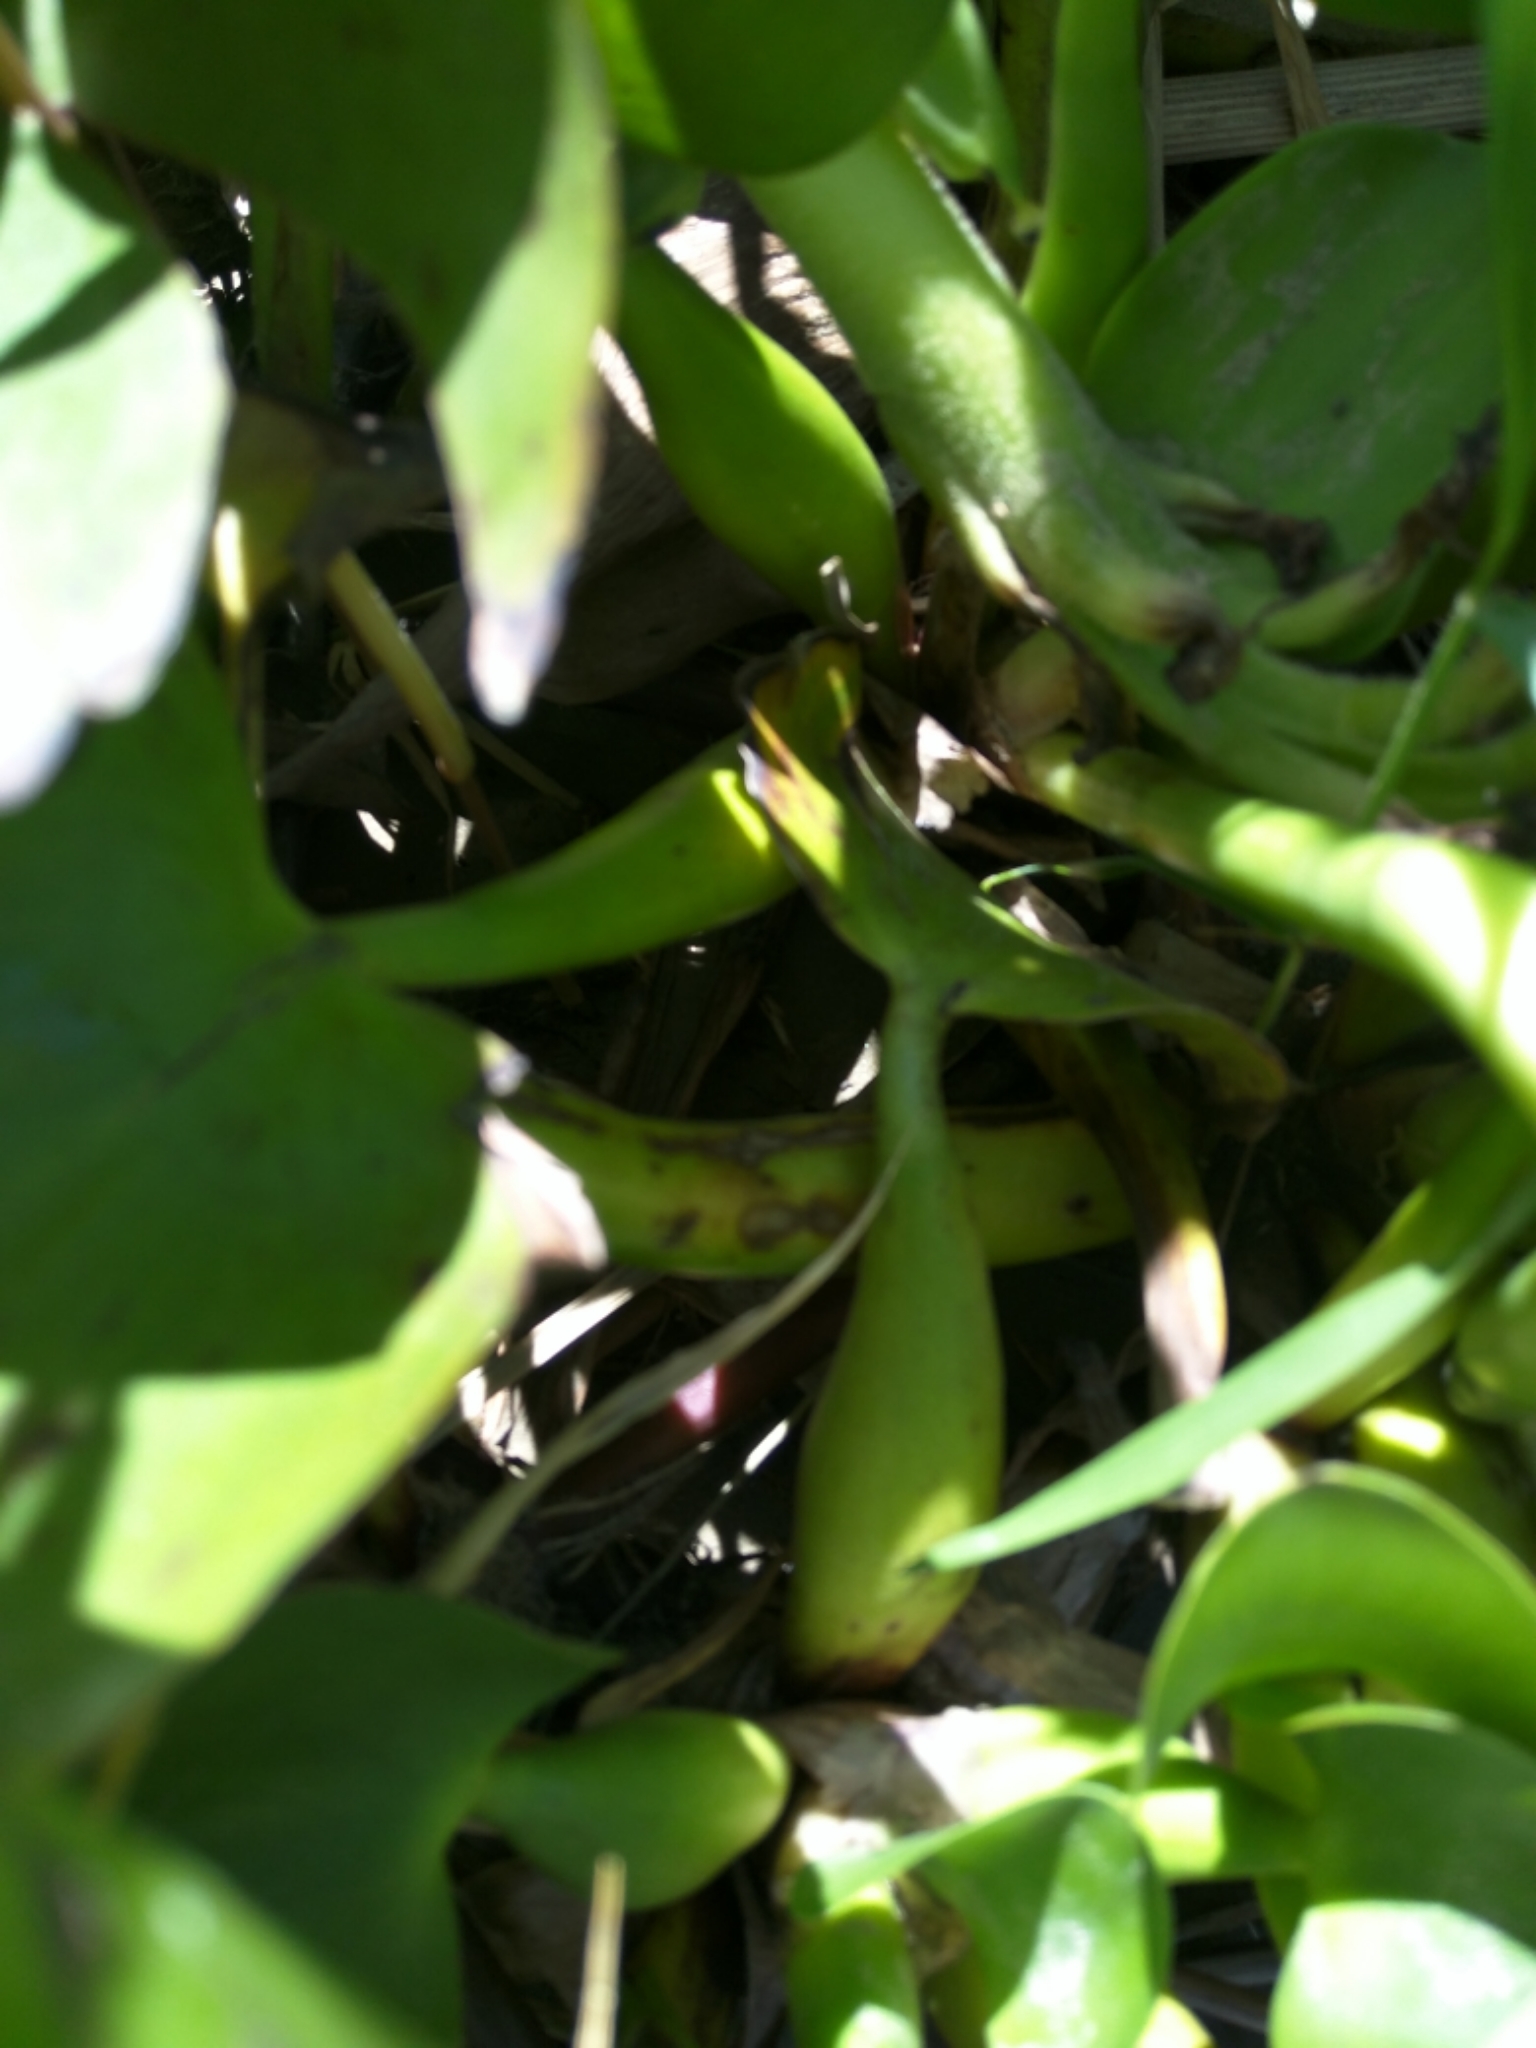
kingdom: Plantae
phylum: Tracheophyta
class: Liliopsida
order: Commelinales
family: Pontederiaceae
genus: Pontederia
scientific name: Pontederia crassipes
